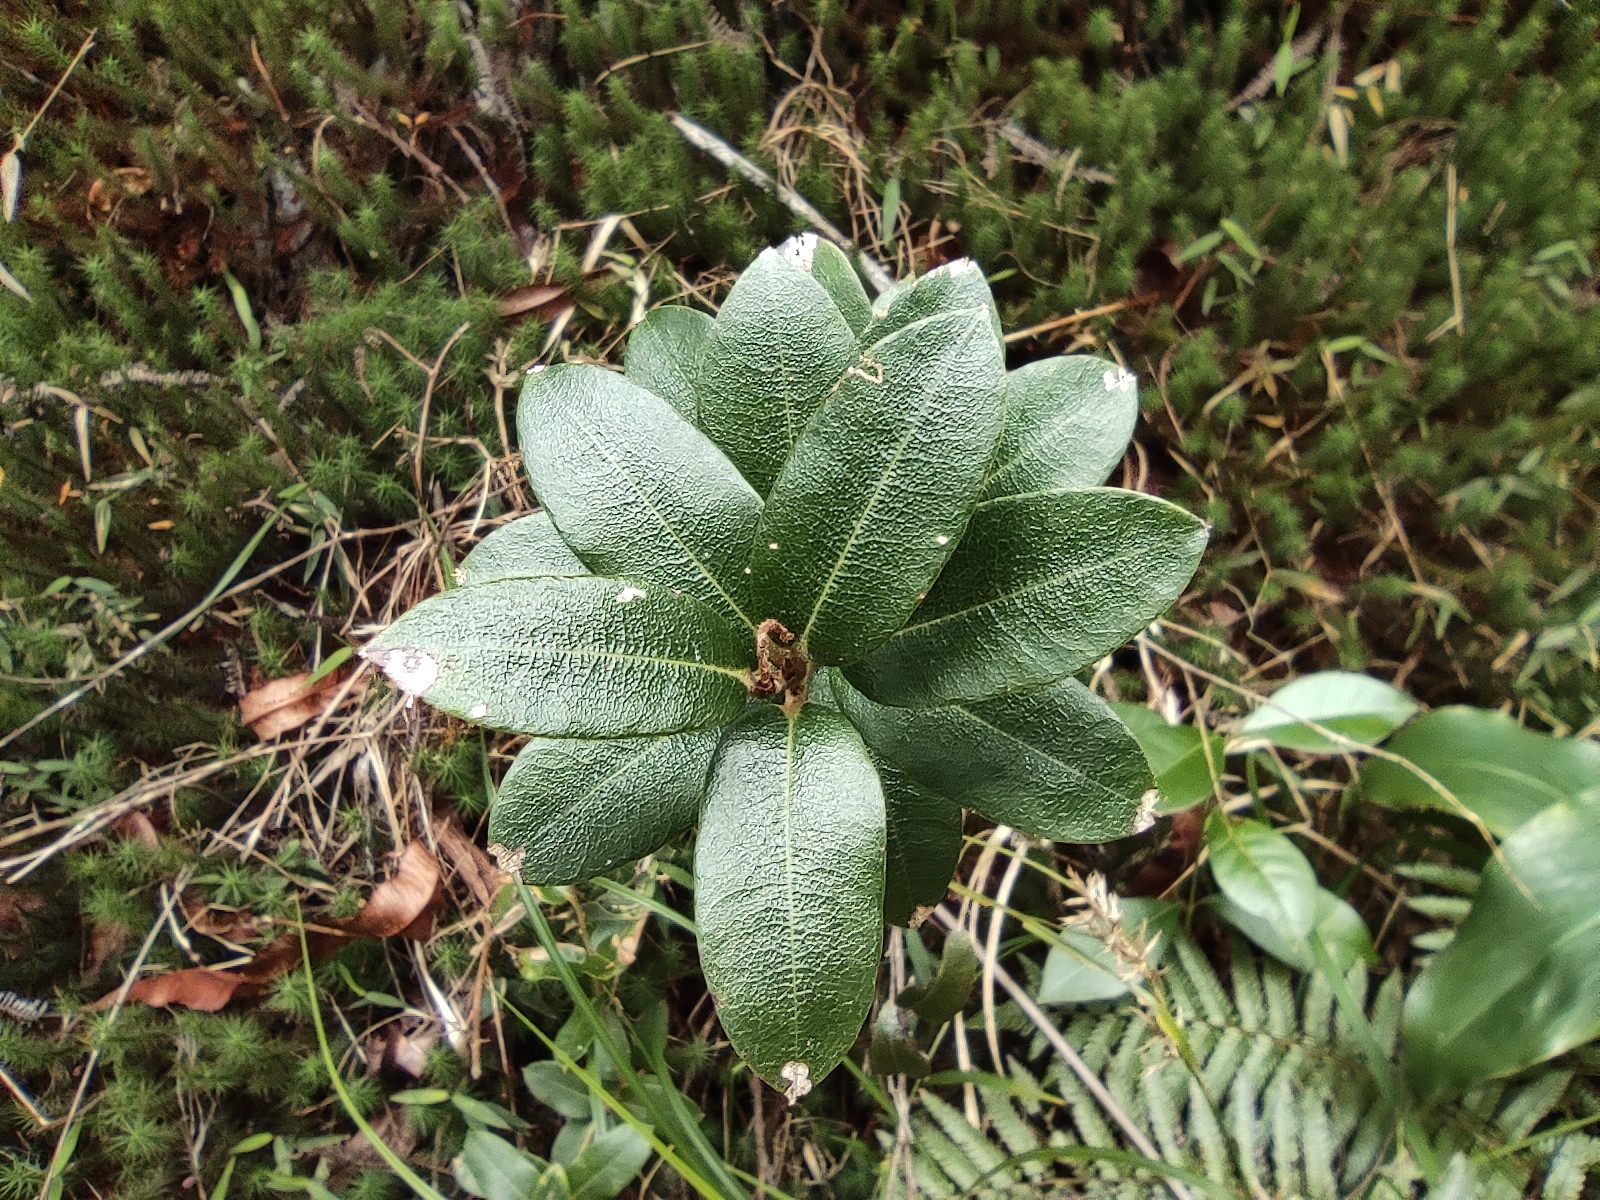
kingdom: Plantae
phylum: Tracheophyta
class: Magnoliopsida
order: Ericales
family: Ericaceae
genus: Agarista
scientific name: Agarista buxifolia
